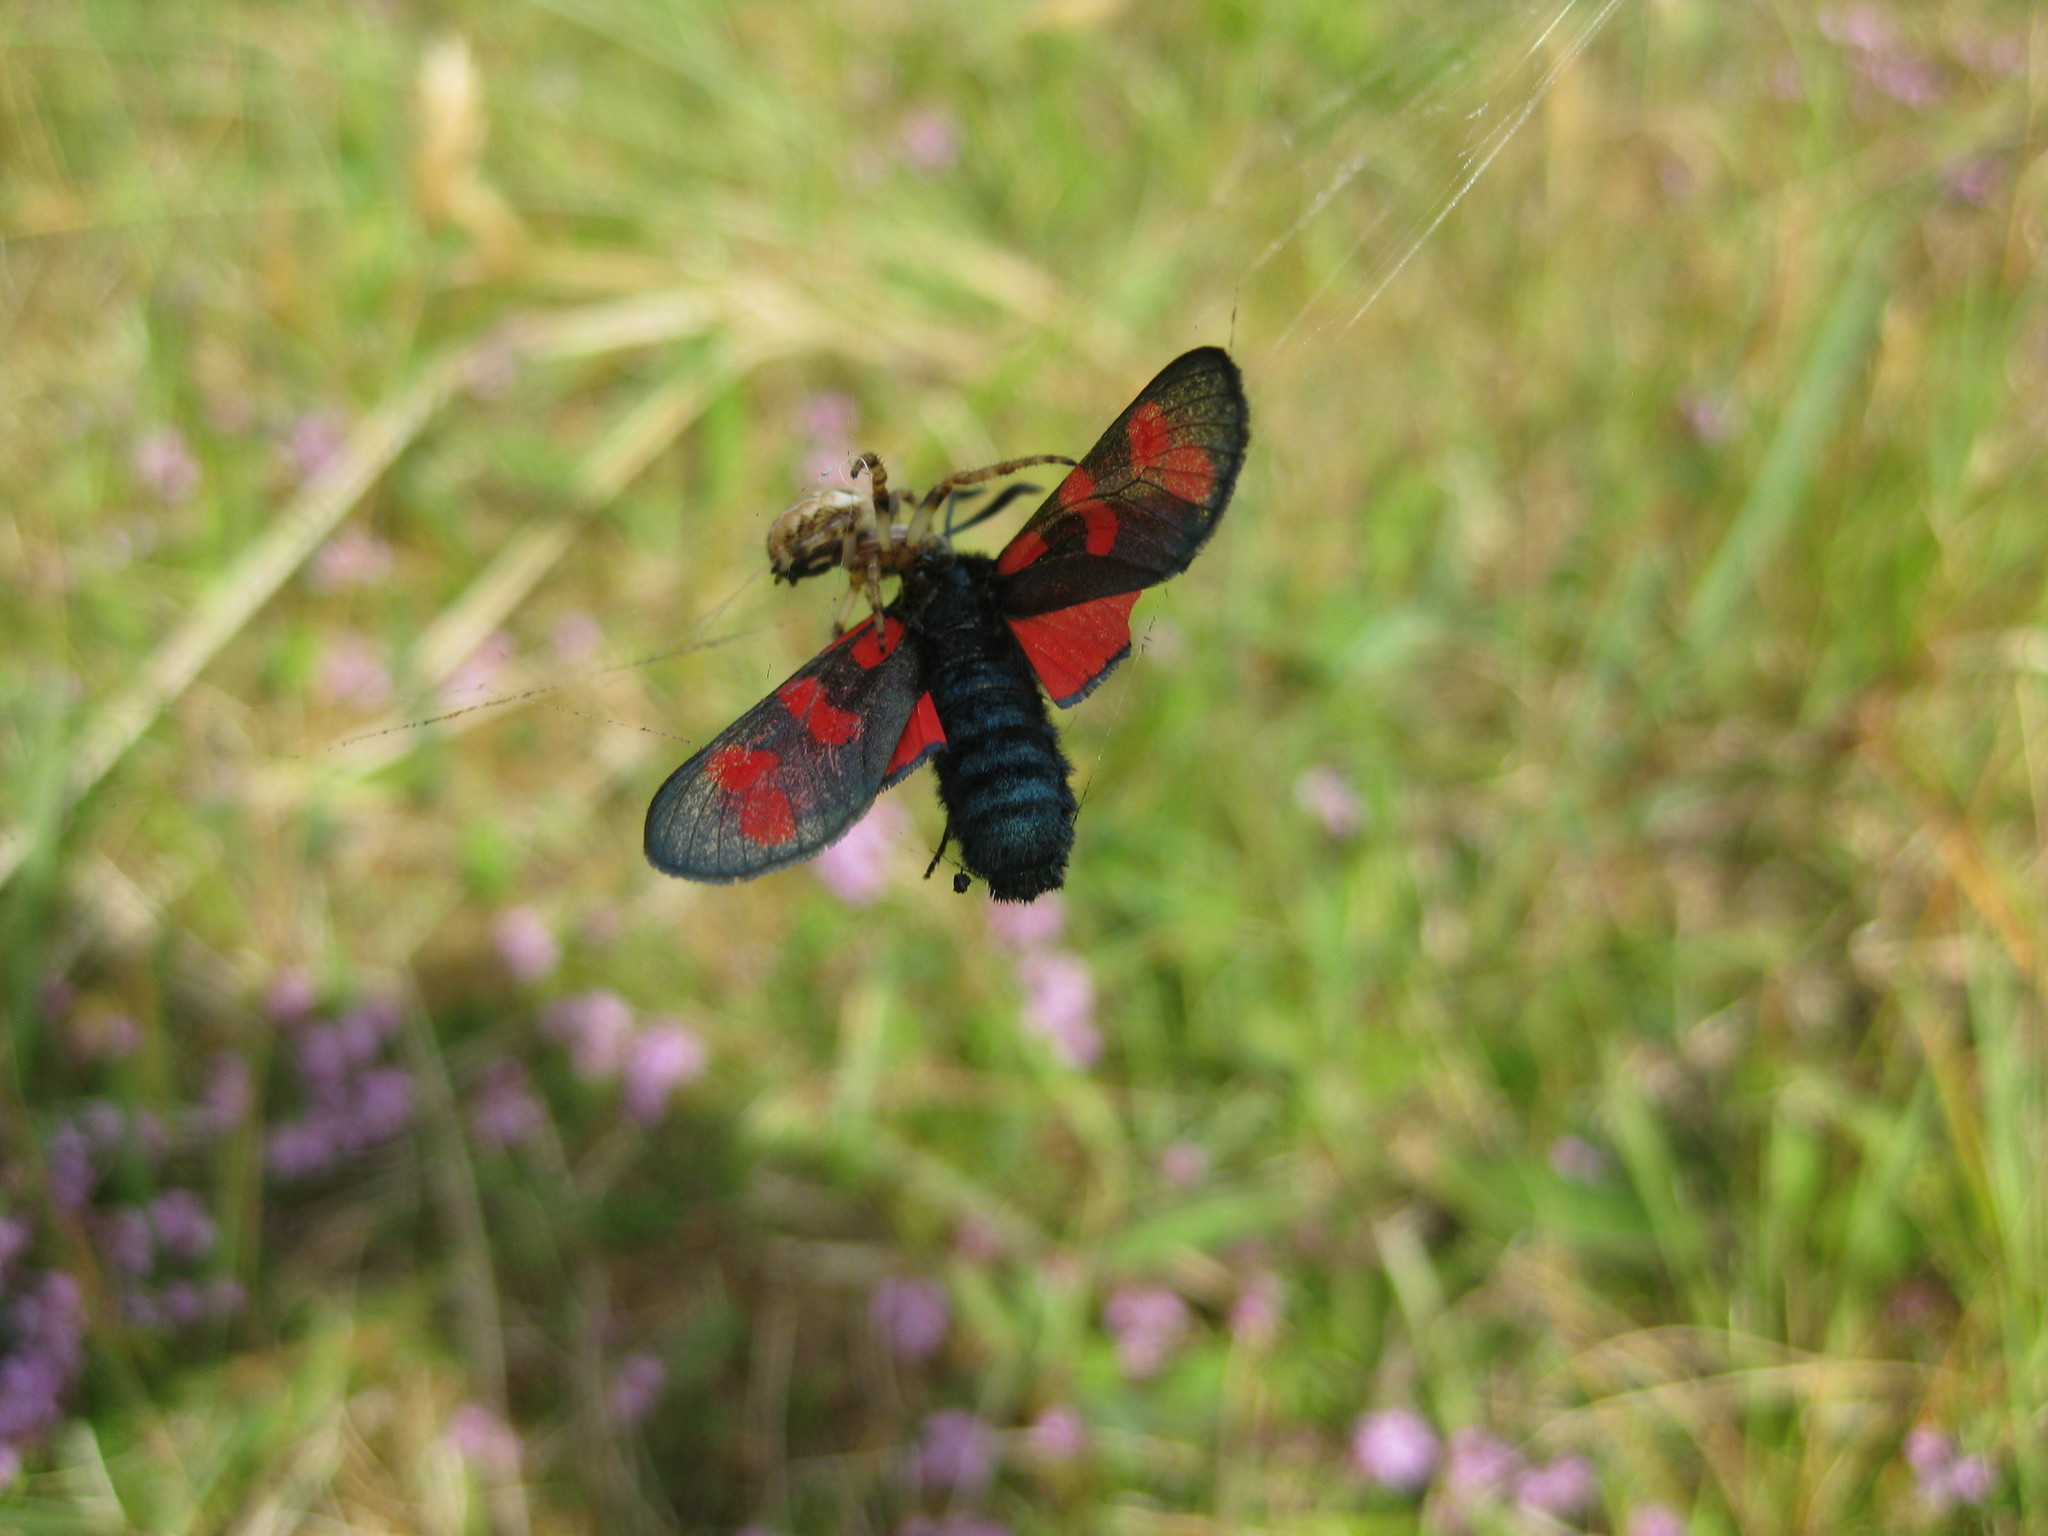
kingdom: Animalia
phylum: Arthropoda
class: Insecta
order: Lepidoptera
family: Zygaenidae
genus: Zygaena
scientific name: Zygaena filipendulae
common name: Six-spot burnet
